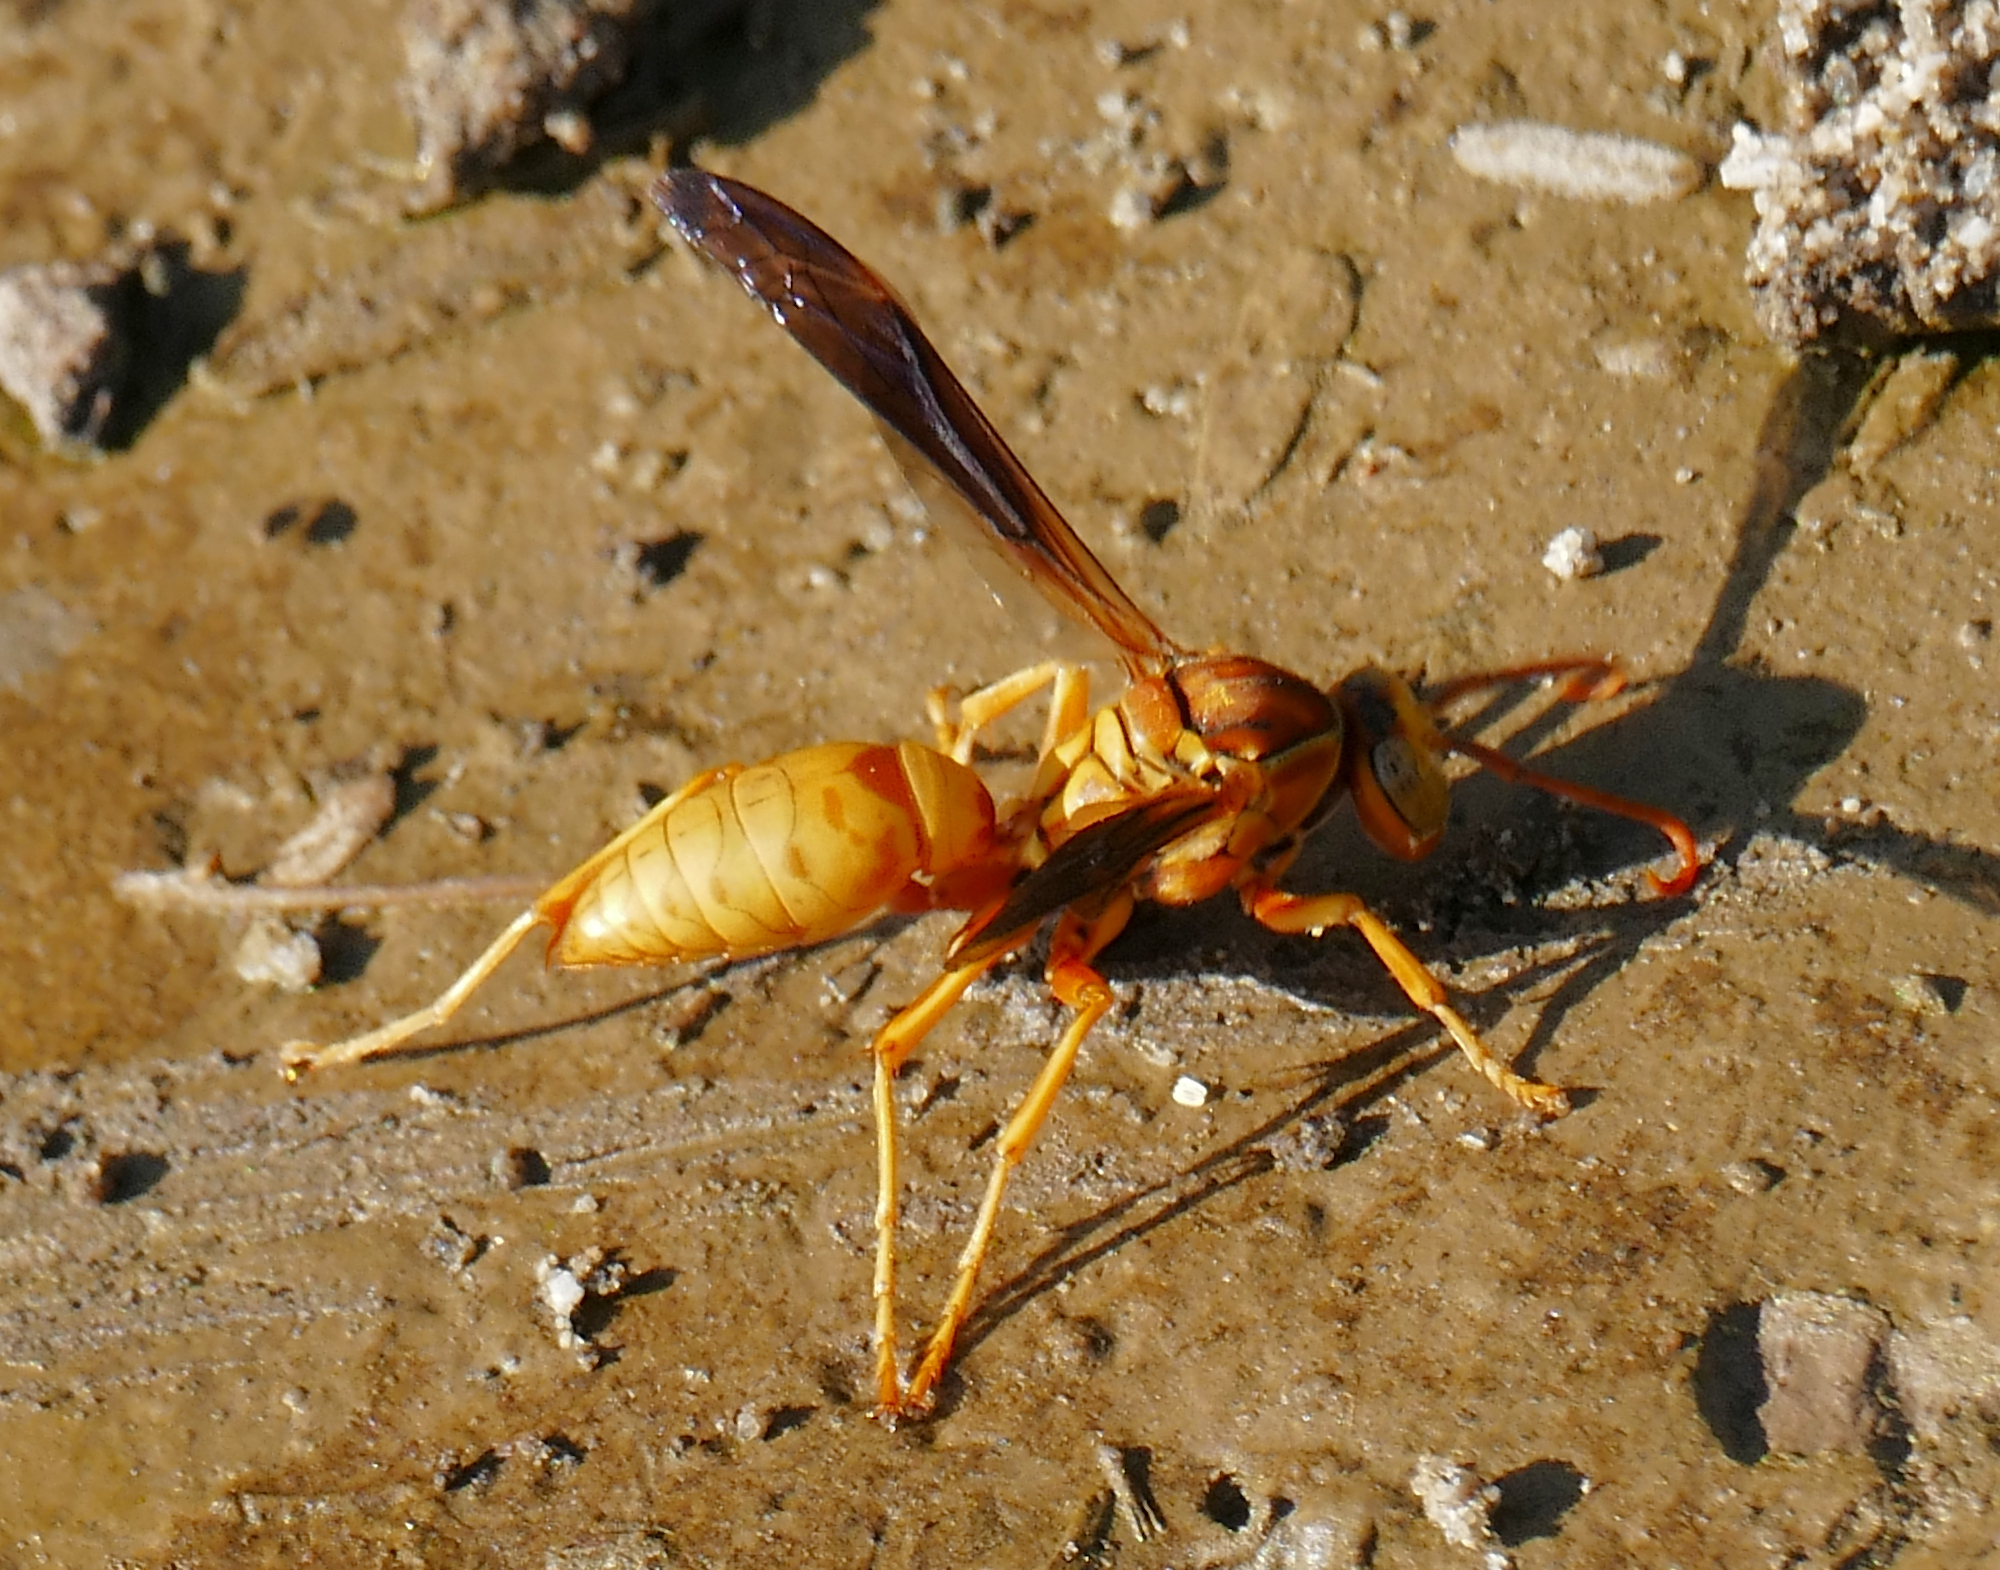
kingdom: Animalia
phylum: Arthropoda
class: Insecta
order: Hymenoptera
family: Eumenidae
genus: Polistes
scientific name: Polistes flavus
